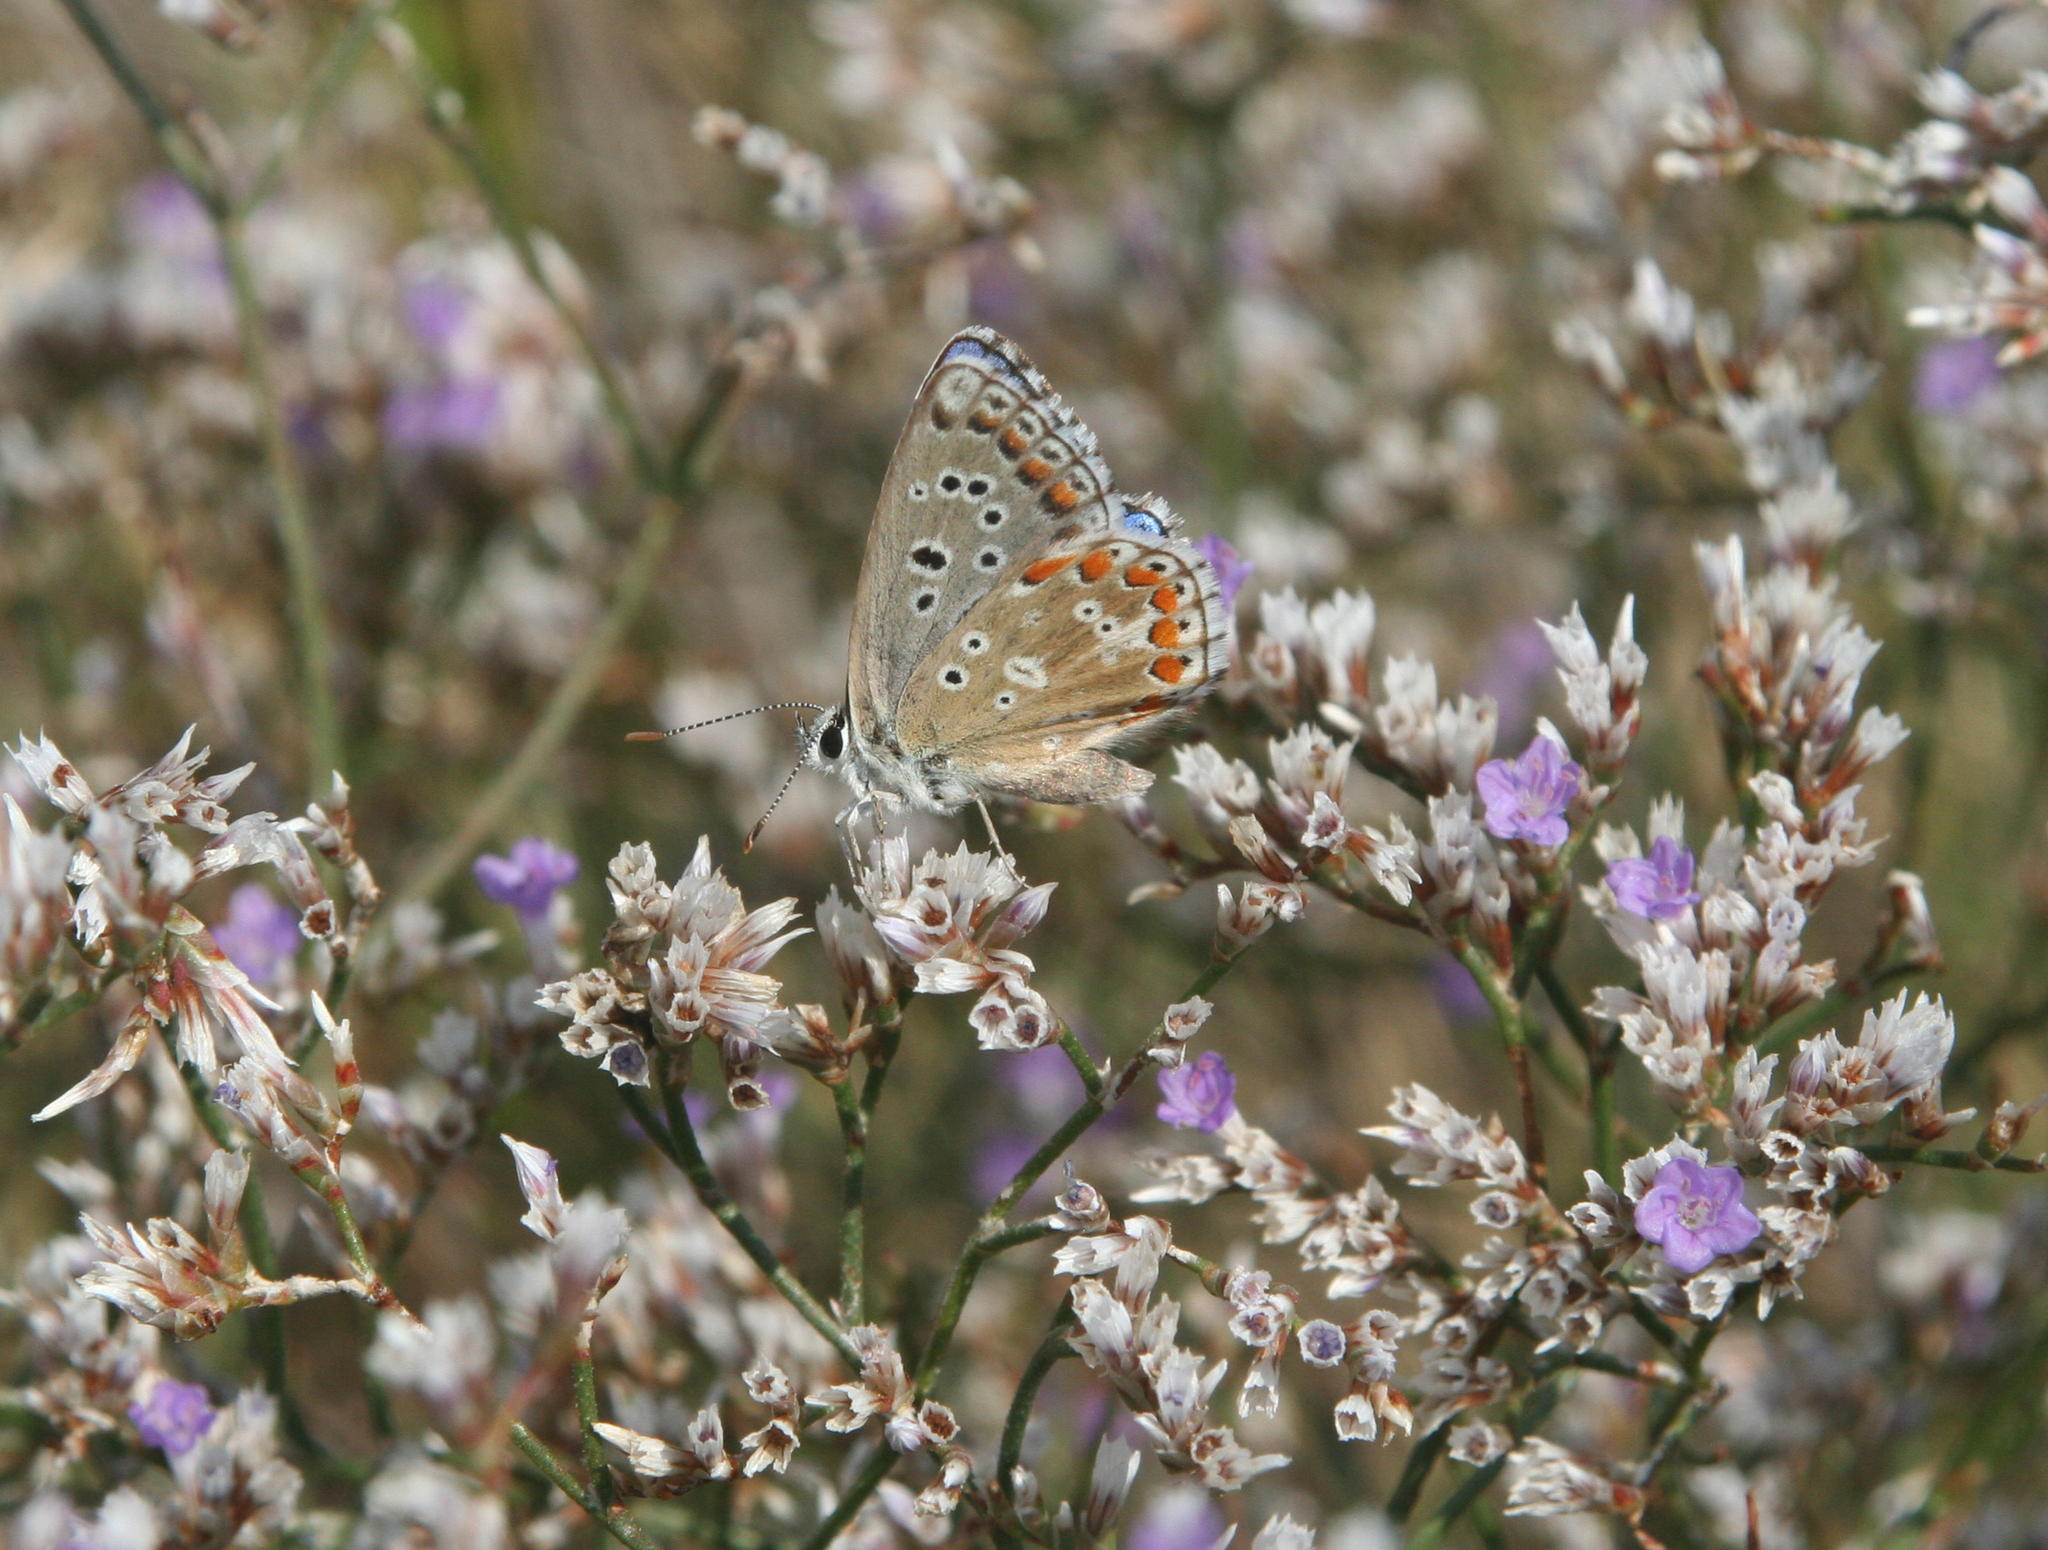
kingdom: Animalia
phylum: Arthropoda
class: Insecta
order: Lepidoptera
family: Lycaenidae
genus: Lysandra
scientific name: Lysandra bellargus
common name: Adonis blue
